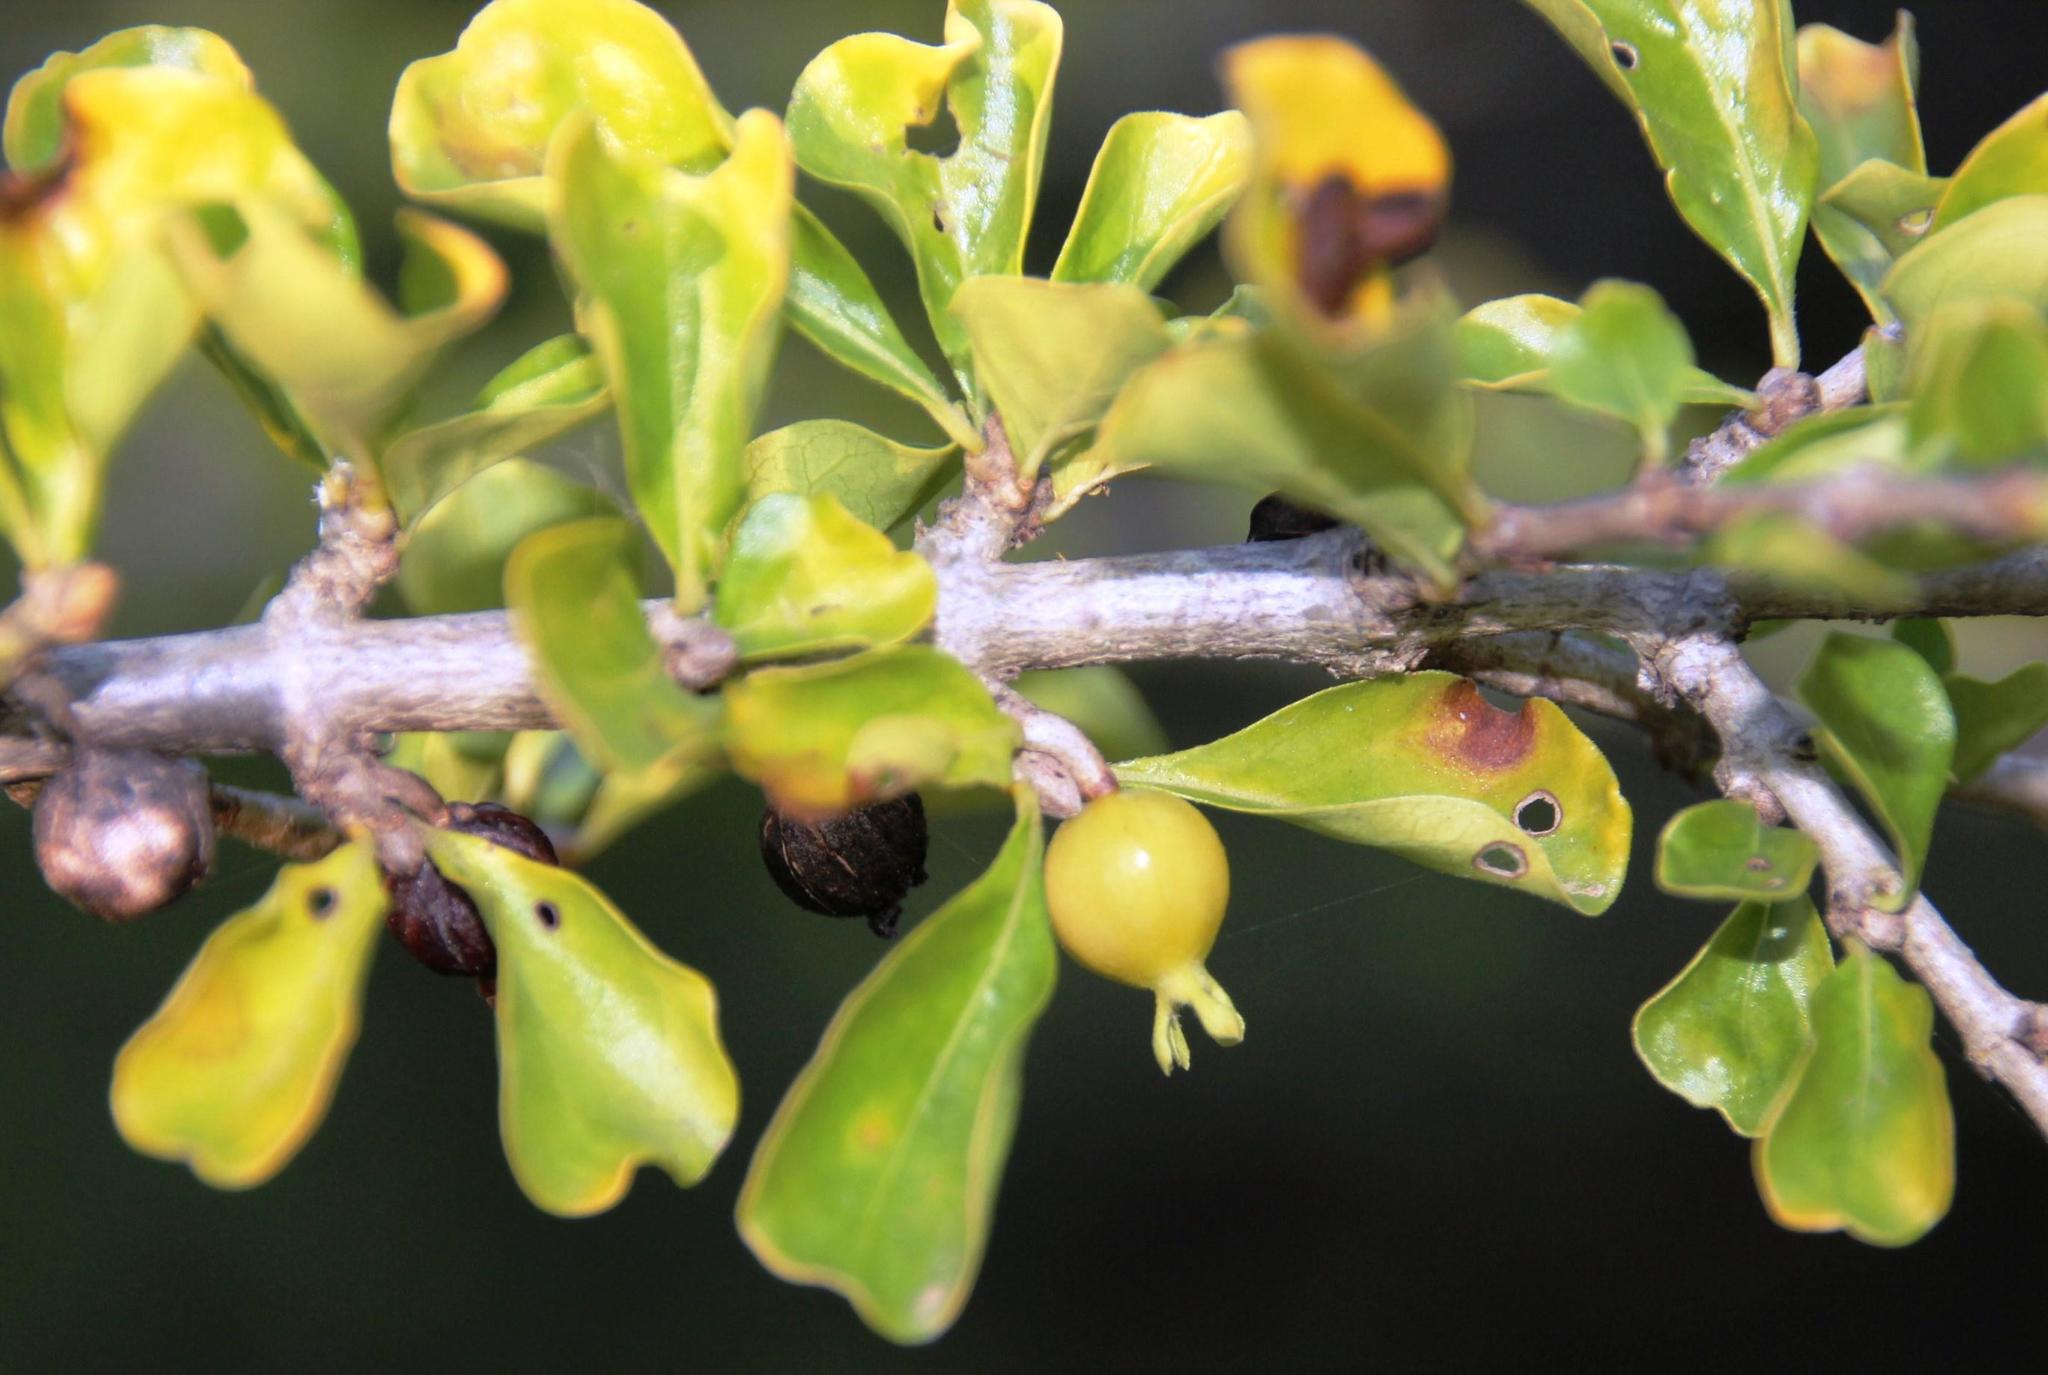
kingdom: Plantae
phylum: Tracheophyta
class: Magnoliopsida
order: Gentianales
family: Rubiaceae
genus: Coddia
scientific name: Coddia rudis
